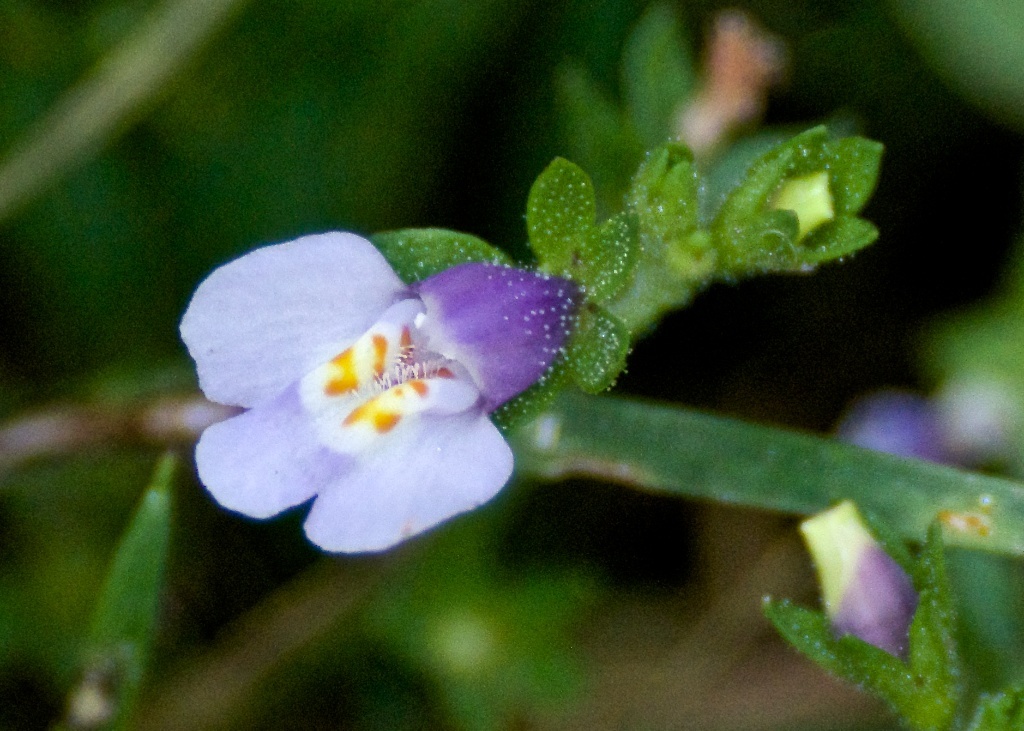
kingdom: Plantae
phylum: Tracheophyta
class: Magnoliopsida
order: Lamiales
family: Mazaceae
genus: Mazus
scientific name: Mazus pumilus
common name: Japanese mazus
